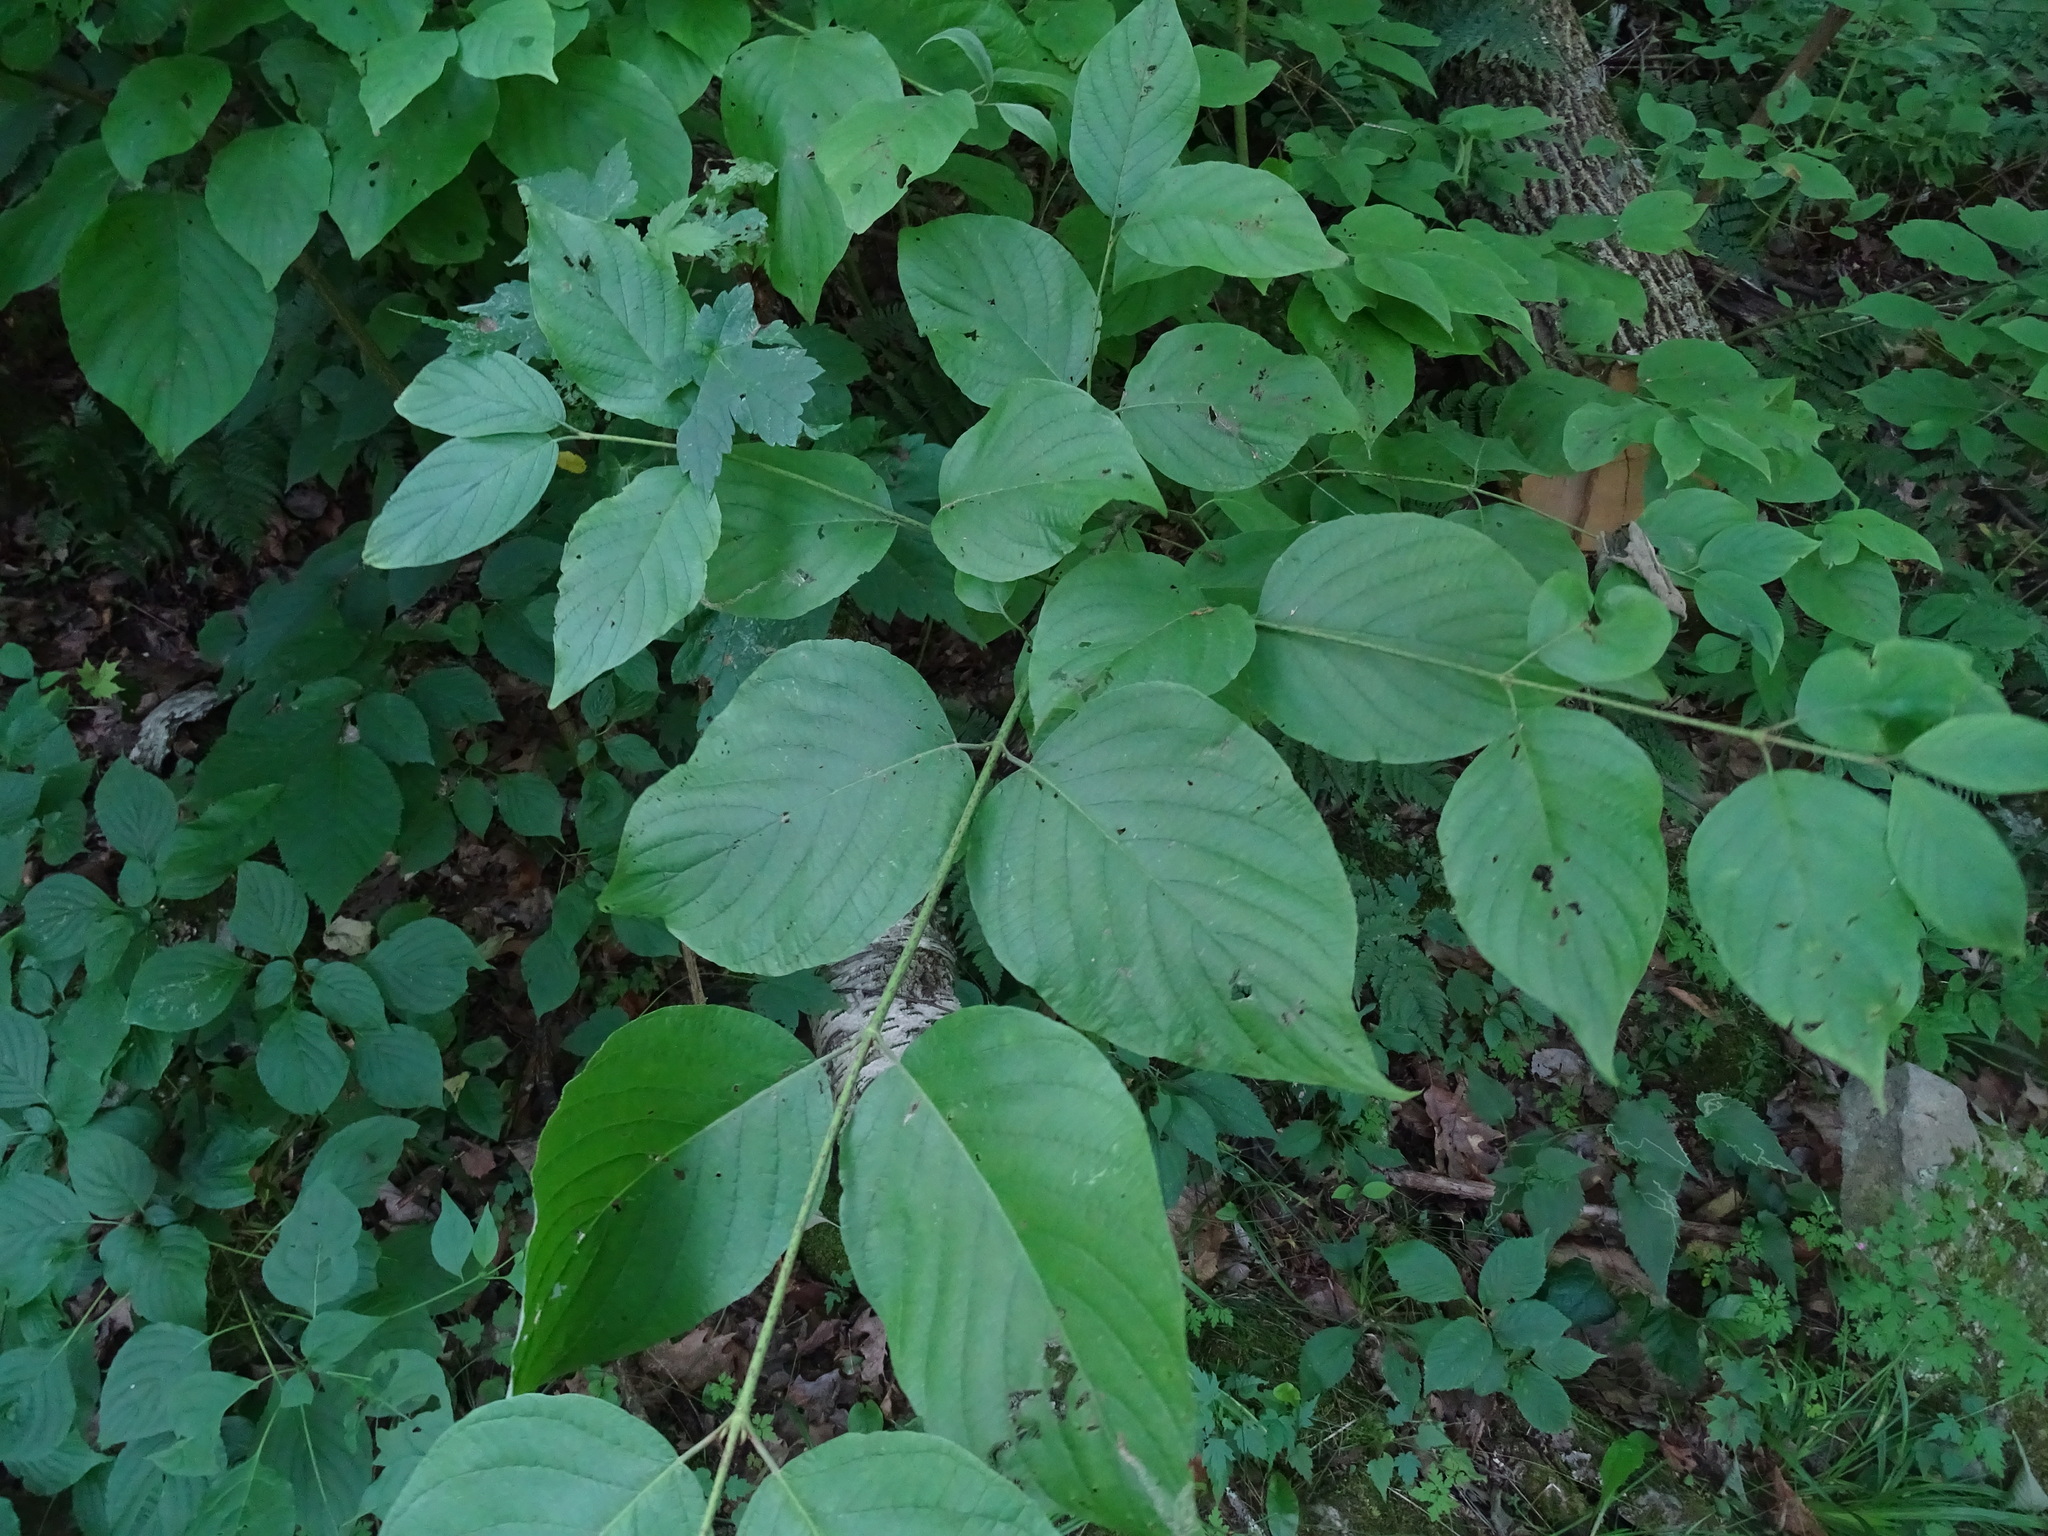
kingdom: Plantae
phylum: Tracheophyta
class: Magnoliopsida
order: Cornales
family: Cornaceae
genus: Cornus
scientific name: Cornus rugosa
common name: Round-leaf dogwood
